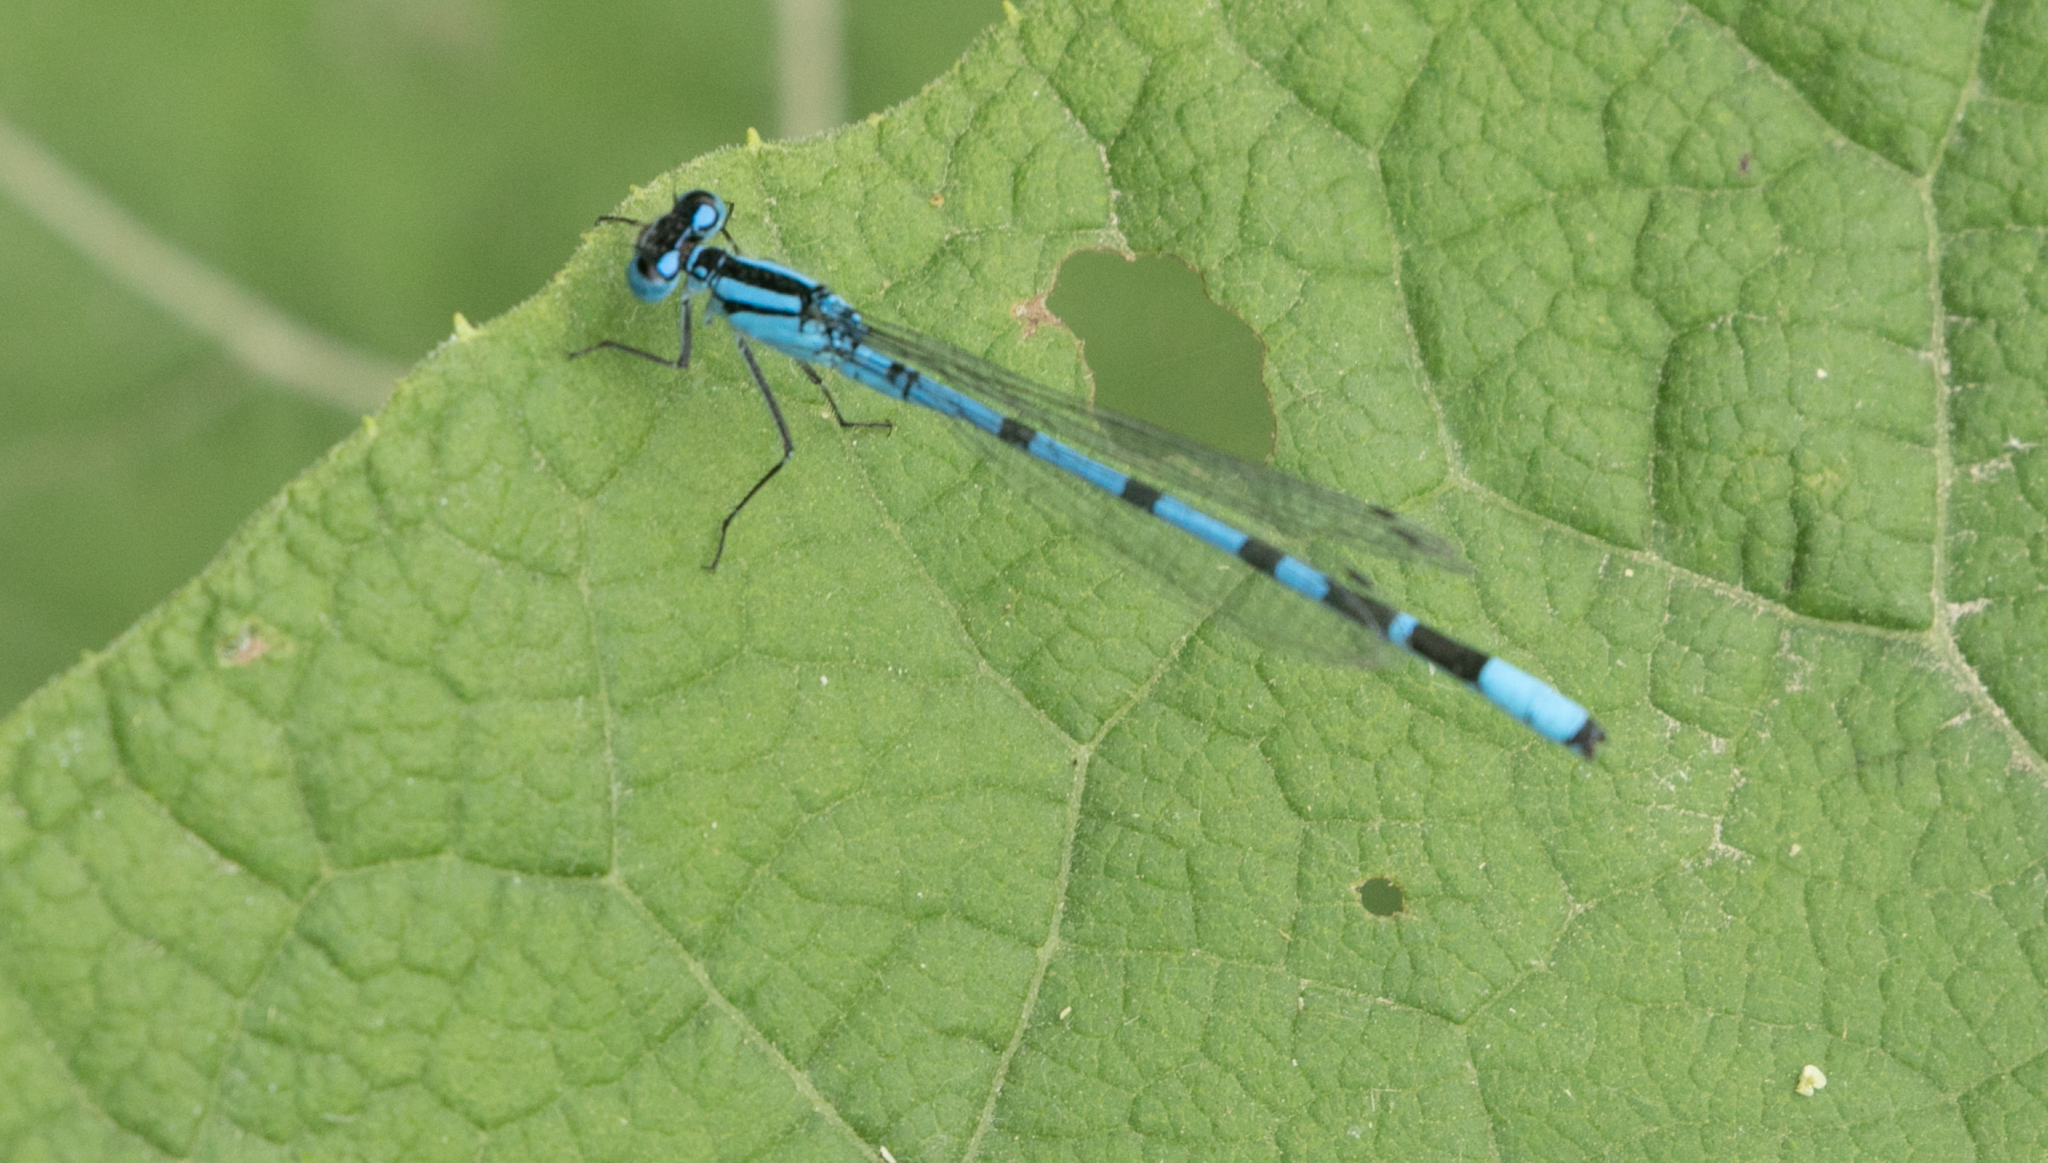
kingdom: Animalia
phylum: Arthropoda
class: Insecta
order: Odonata
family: Coenagrionidae
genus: Enallagma
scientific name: Enallagma cyathigerum
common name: Common blue damselfly
